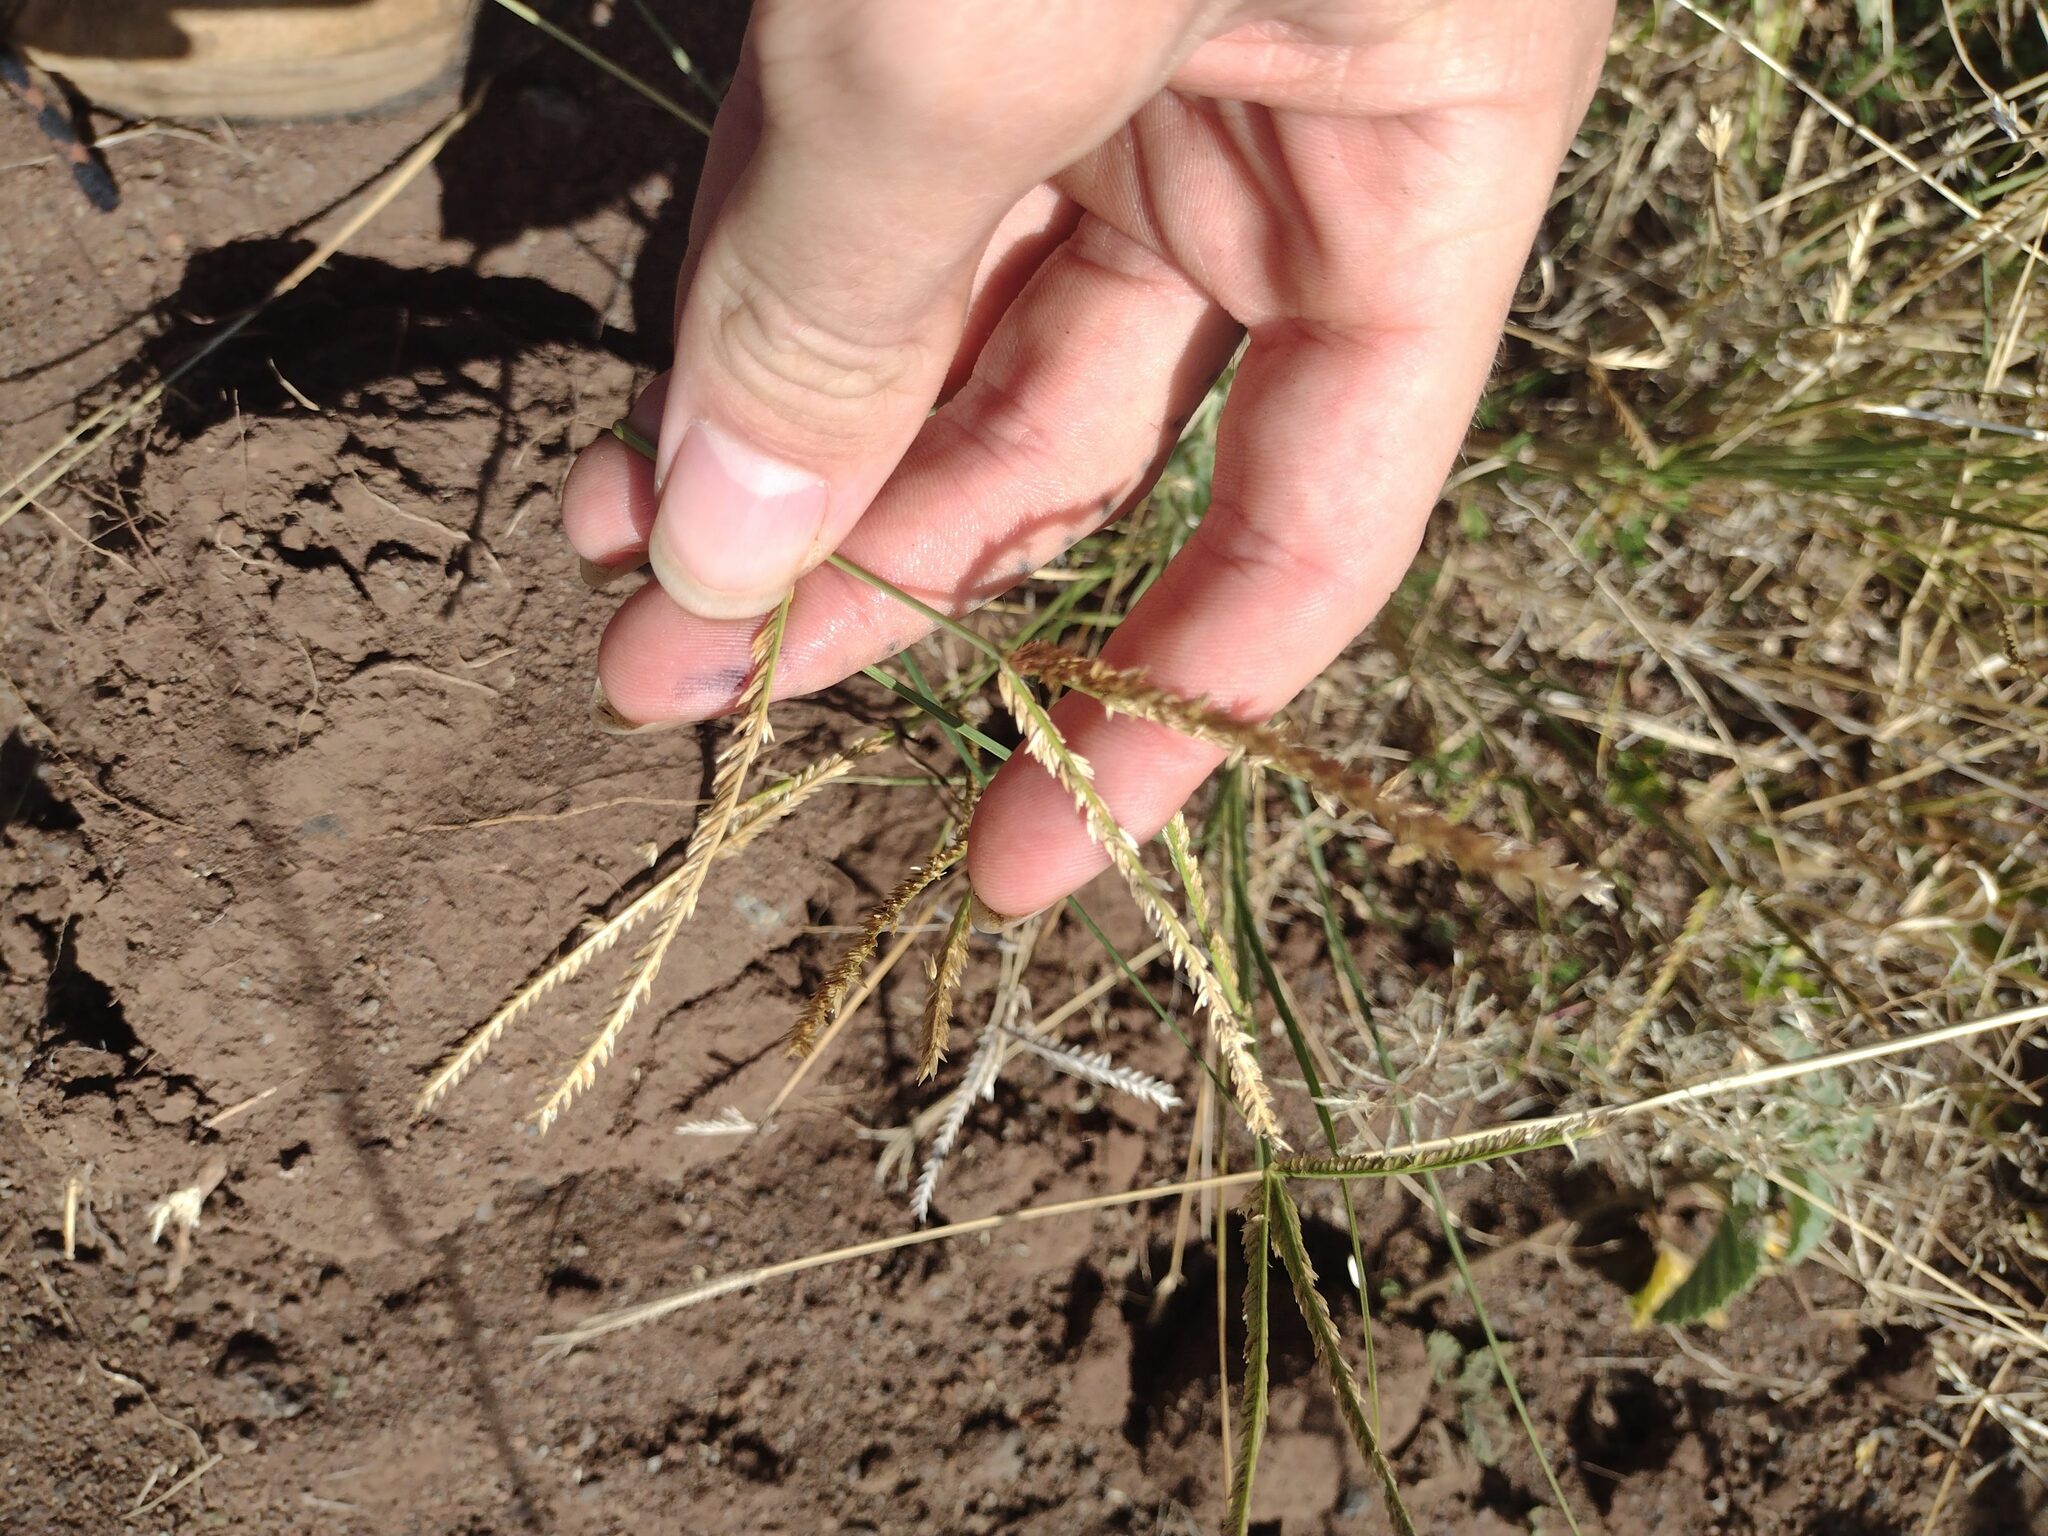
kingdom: Plantae
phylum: Tracheophyta
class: Liliopsida
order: Poales
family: Poaceae
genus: Eleusine
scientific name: Eleusine indica
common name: Yard-grass
